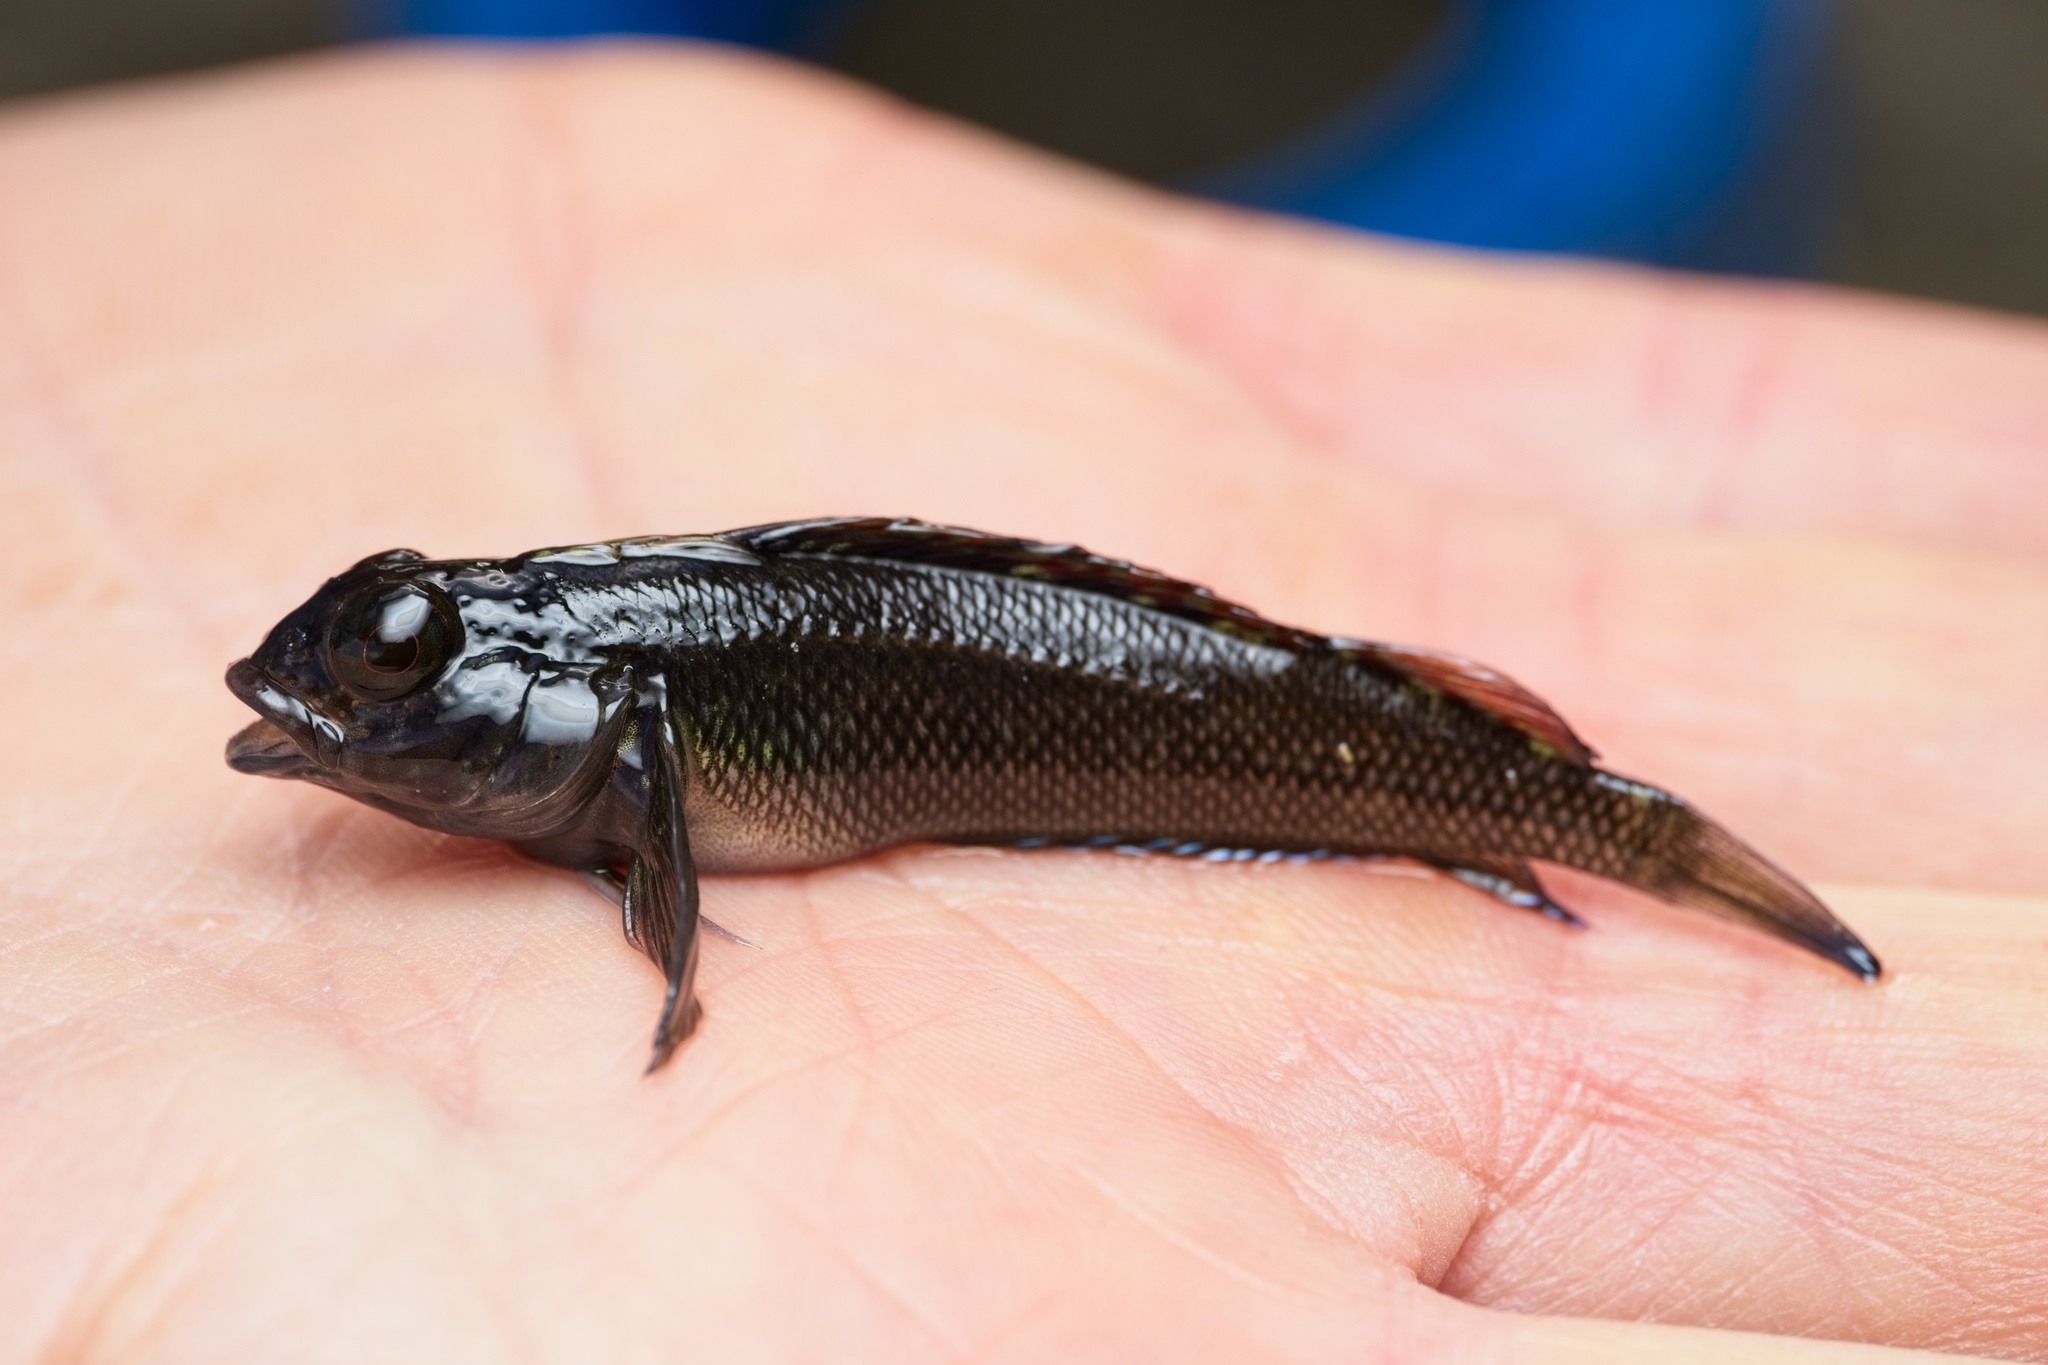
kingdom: Animalia
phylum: Chordata
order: Perciformes
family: Tripterygiidae
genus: Forsterygion
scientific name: Forsterygion lapillum
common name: Common triplefin
